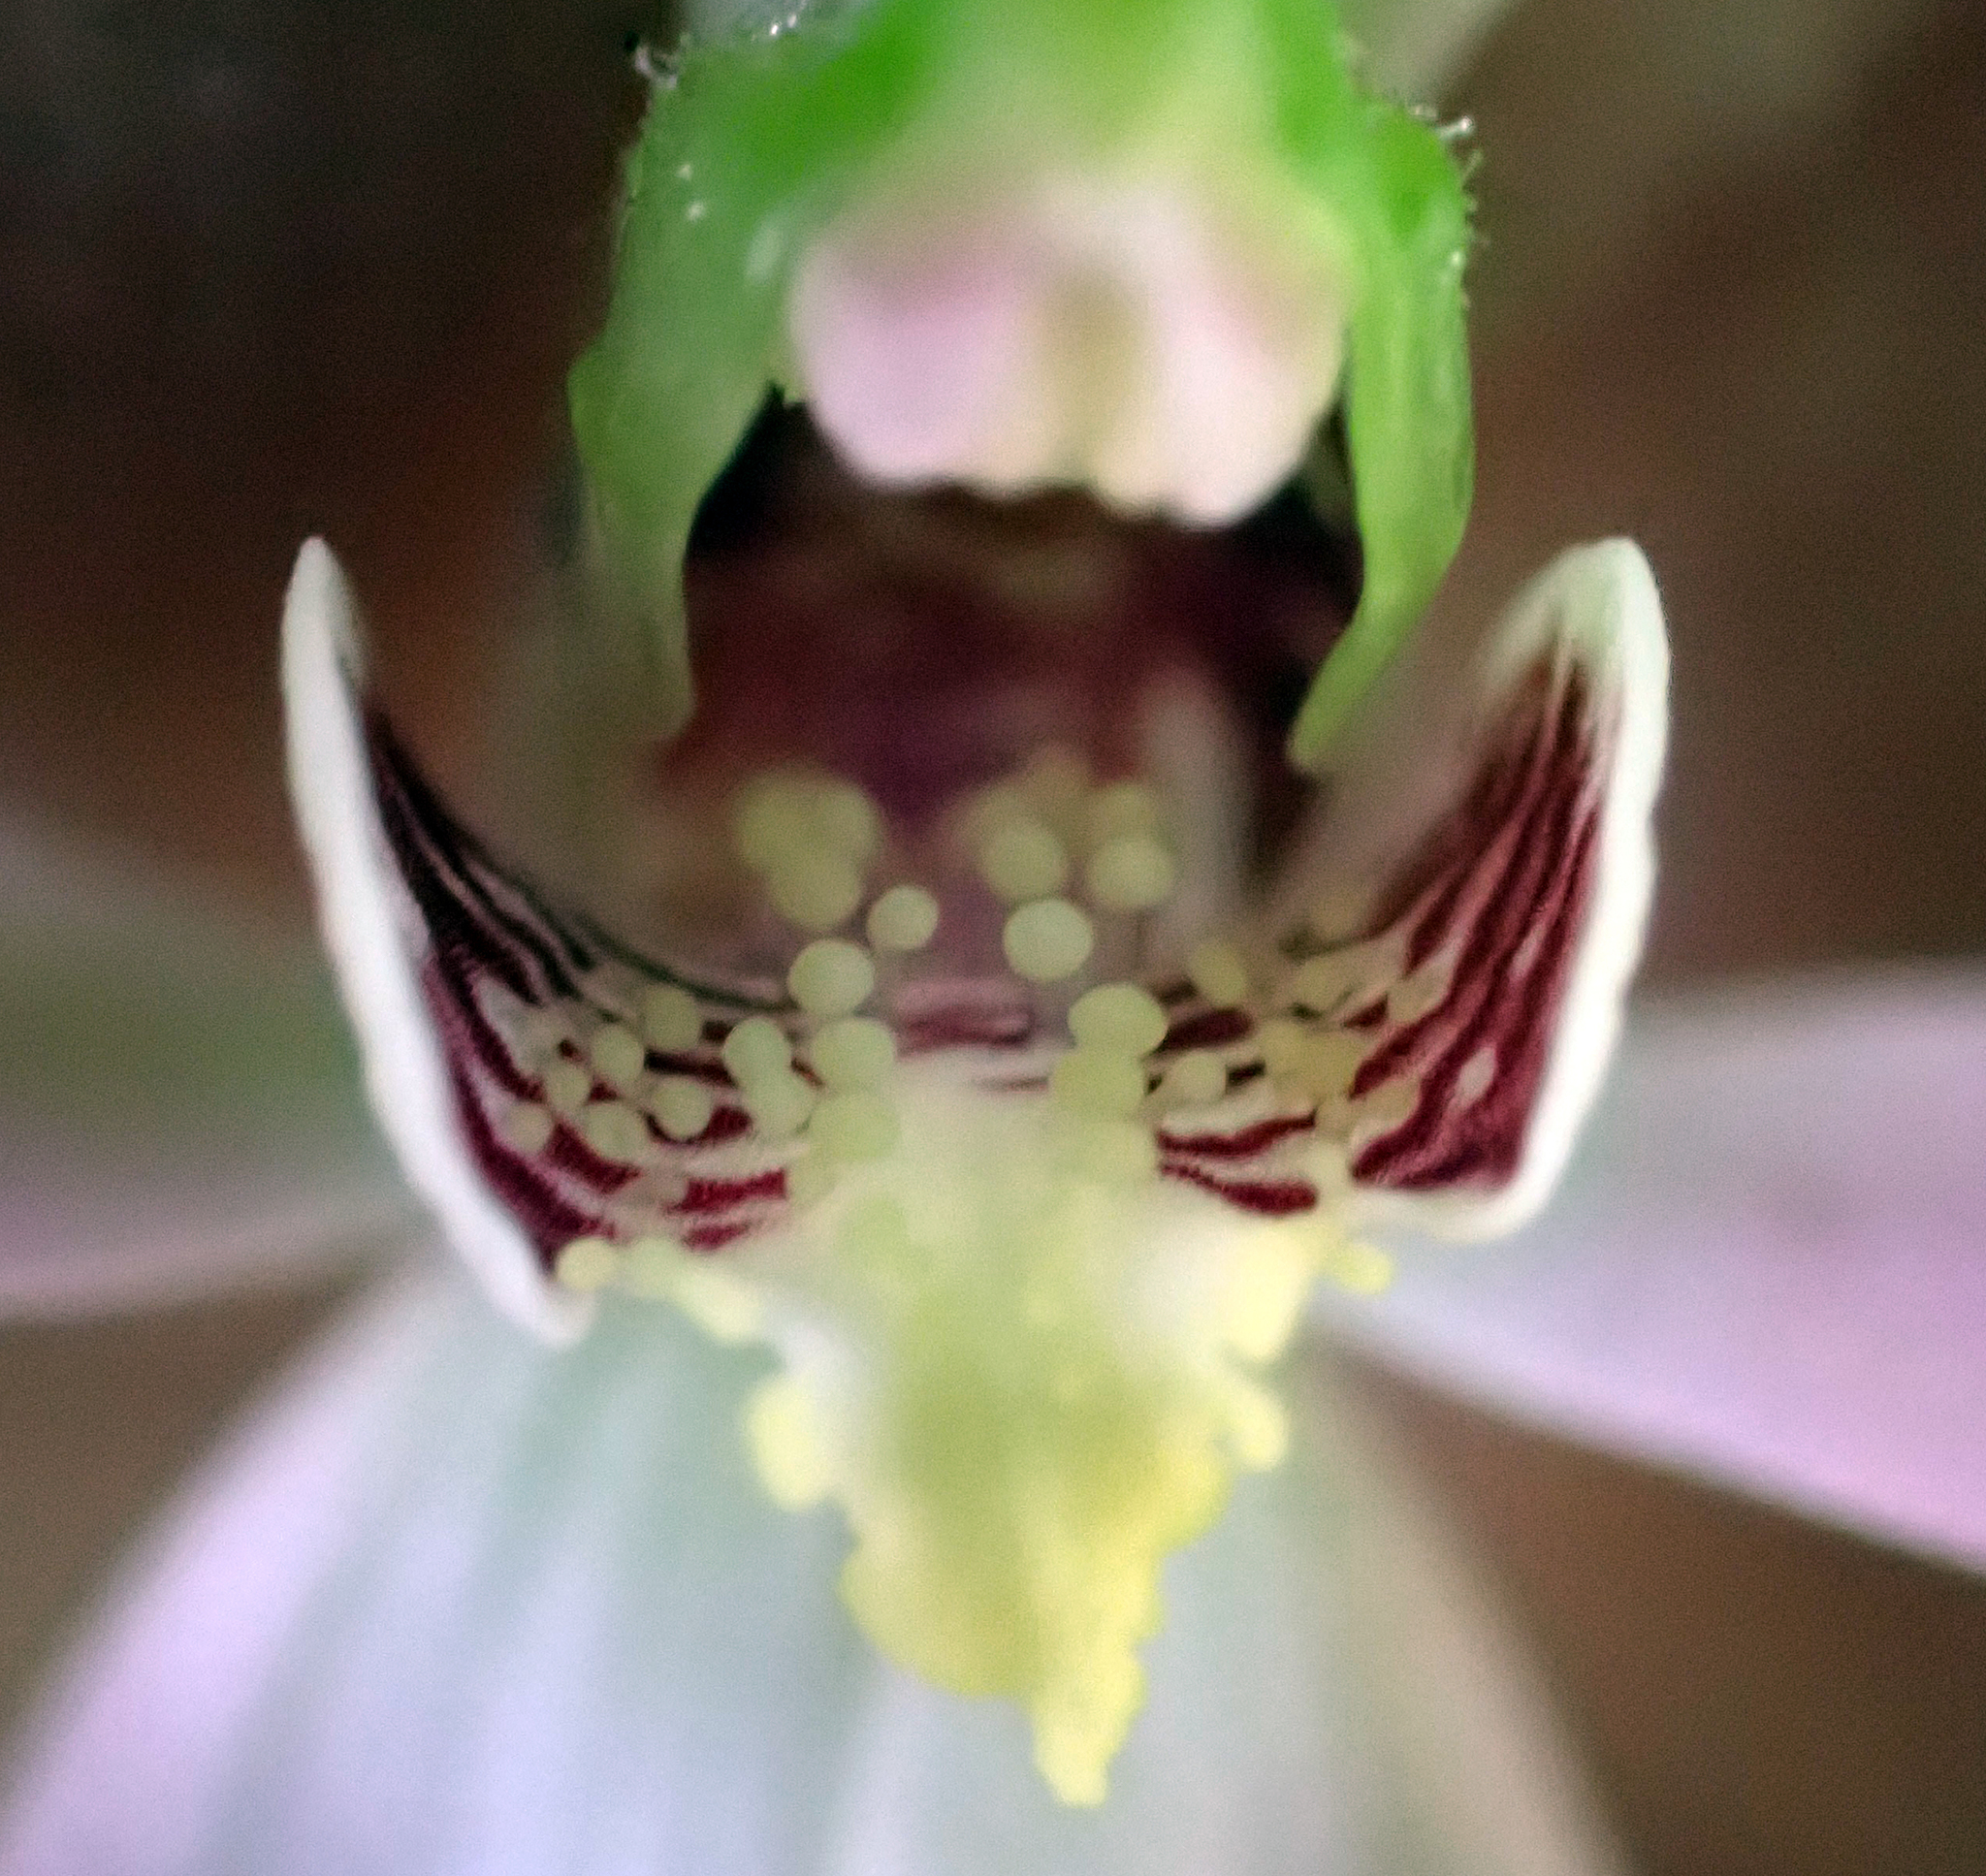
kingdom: Plantae
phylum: Tracheophyta
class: Liliopsida
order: Asparagales
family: Orchidaceae
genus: Caladenia
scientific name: Caladenia variegata
